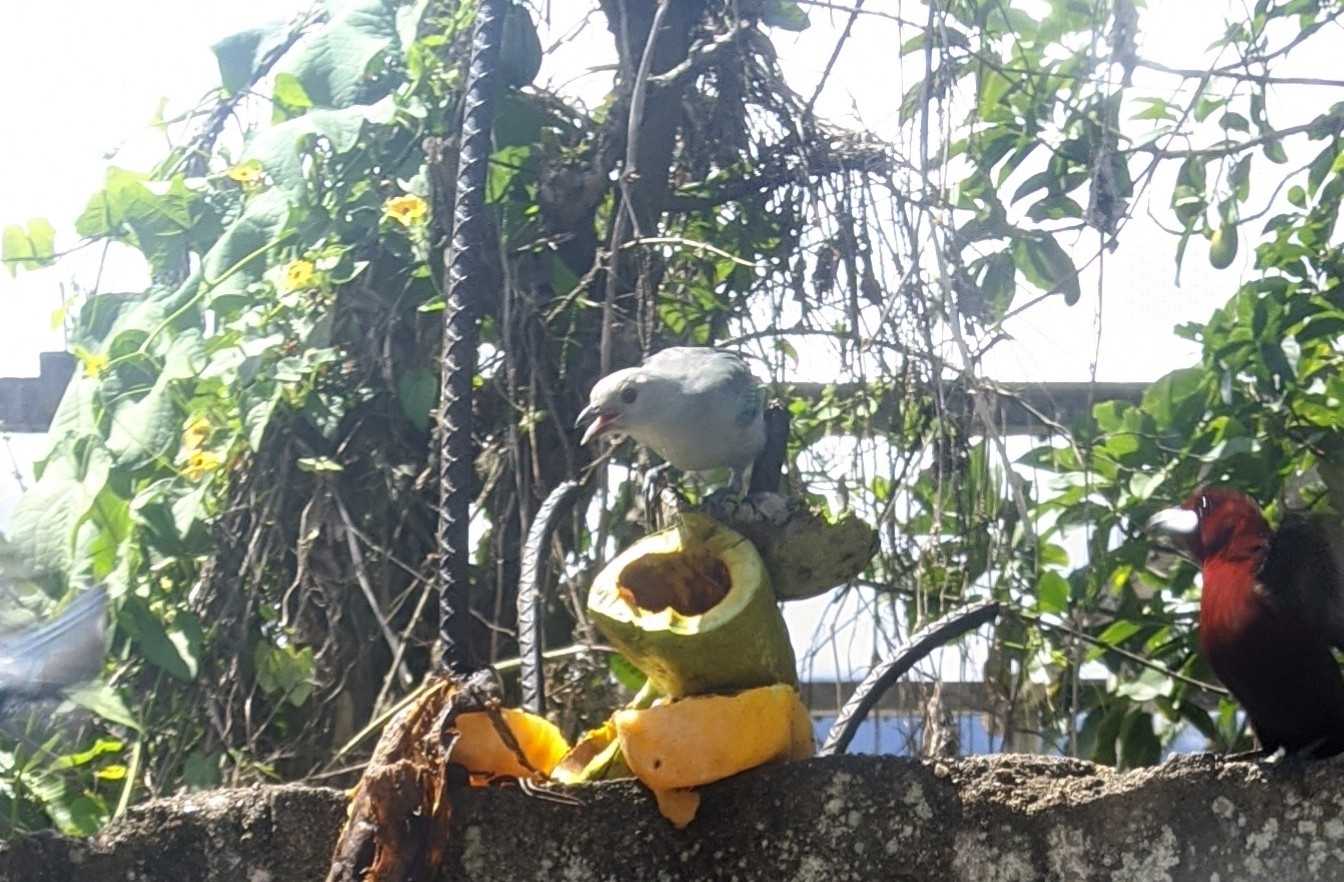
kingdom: Animalia
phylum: Chordata
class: Aves
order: Passeriformes
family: Thraupidae
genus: Thraupis
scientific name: Thraupis episcopus
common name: Blue-grey tanager
